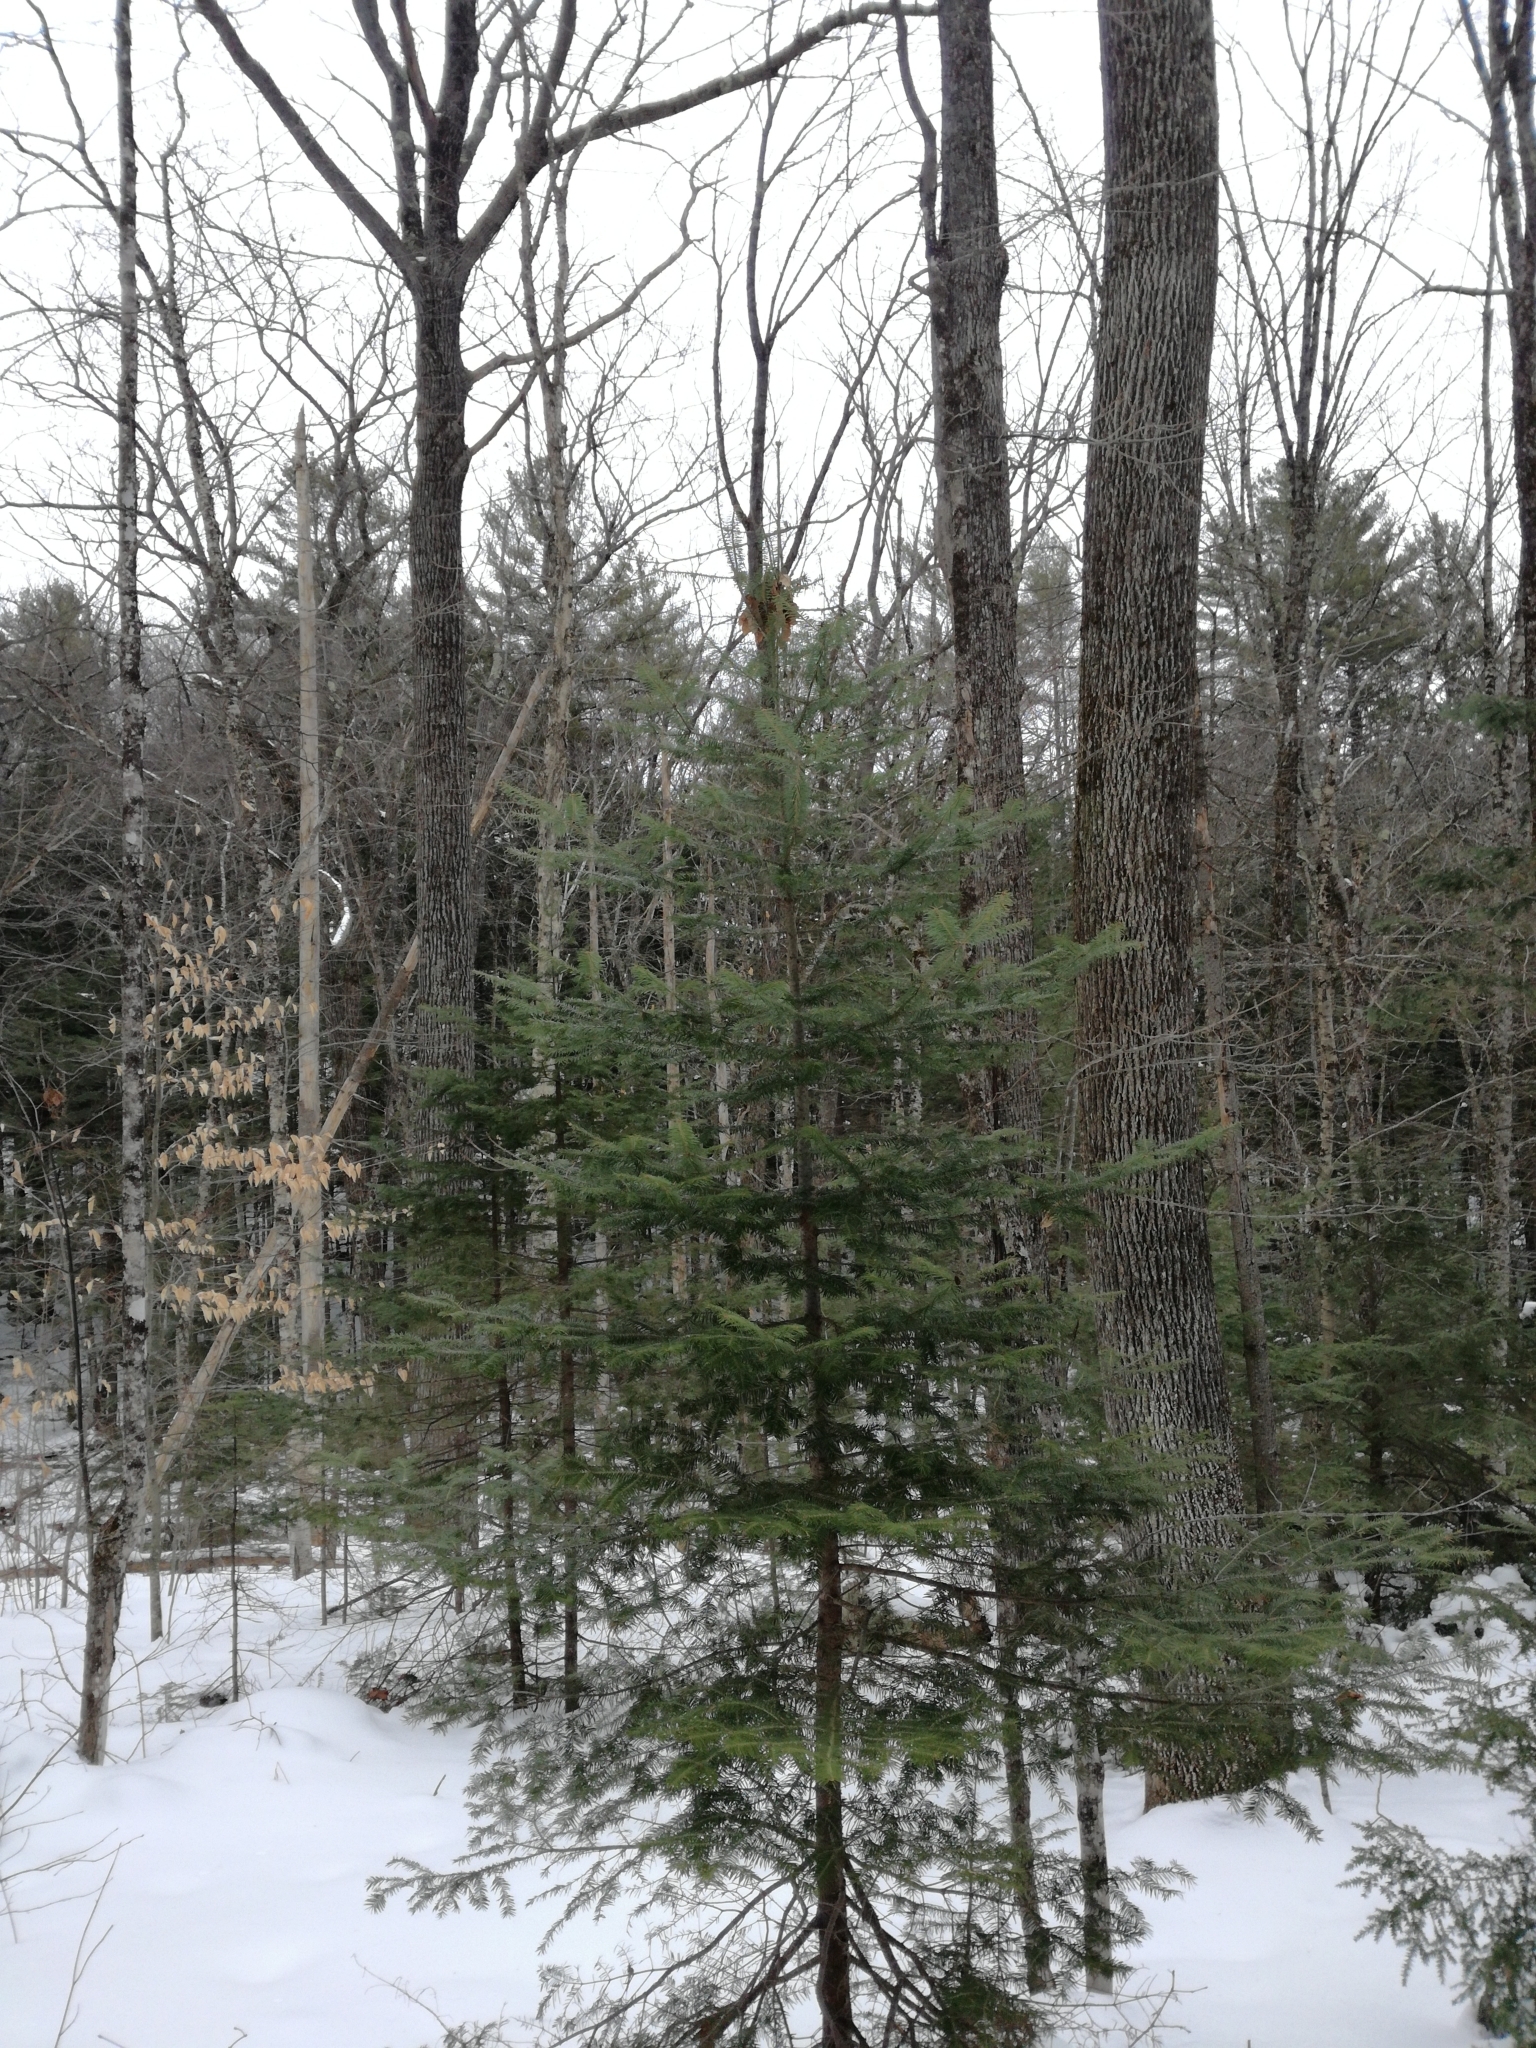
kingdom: Plantae
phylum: Tracheophyta
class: Pinopsida
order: Pinales
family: Pinaceae
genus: Abies
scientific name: Abies balsamea
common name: Balsam fir
